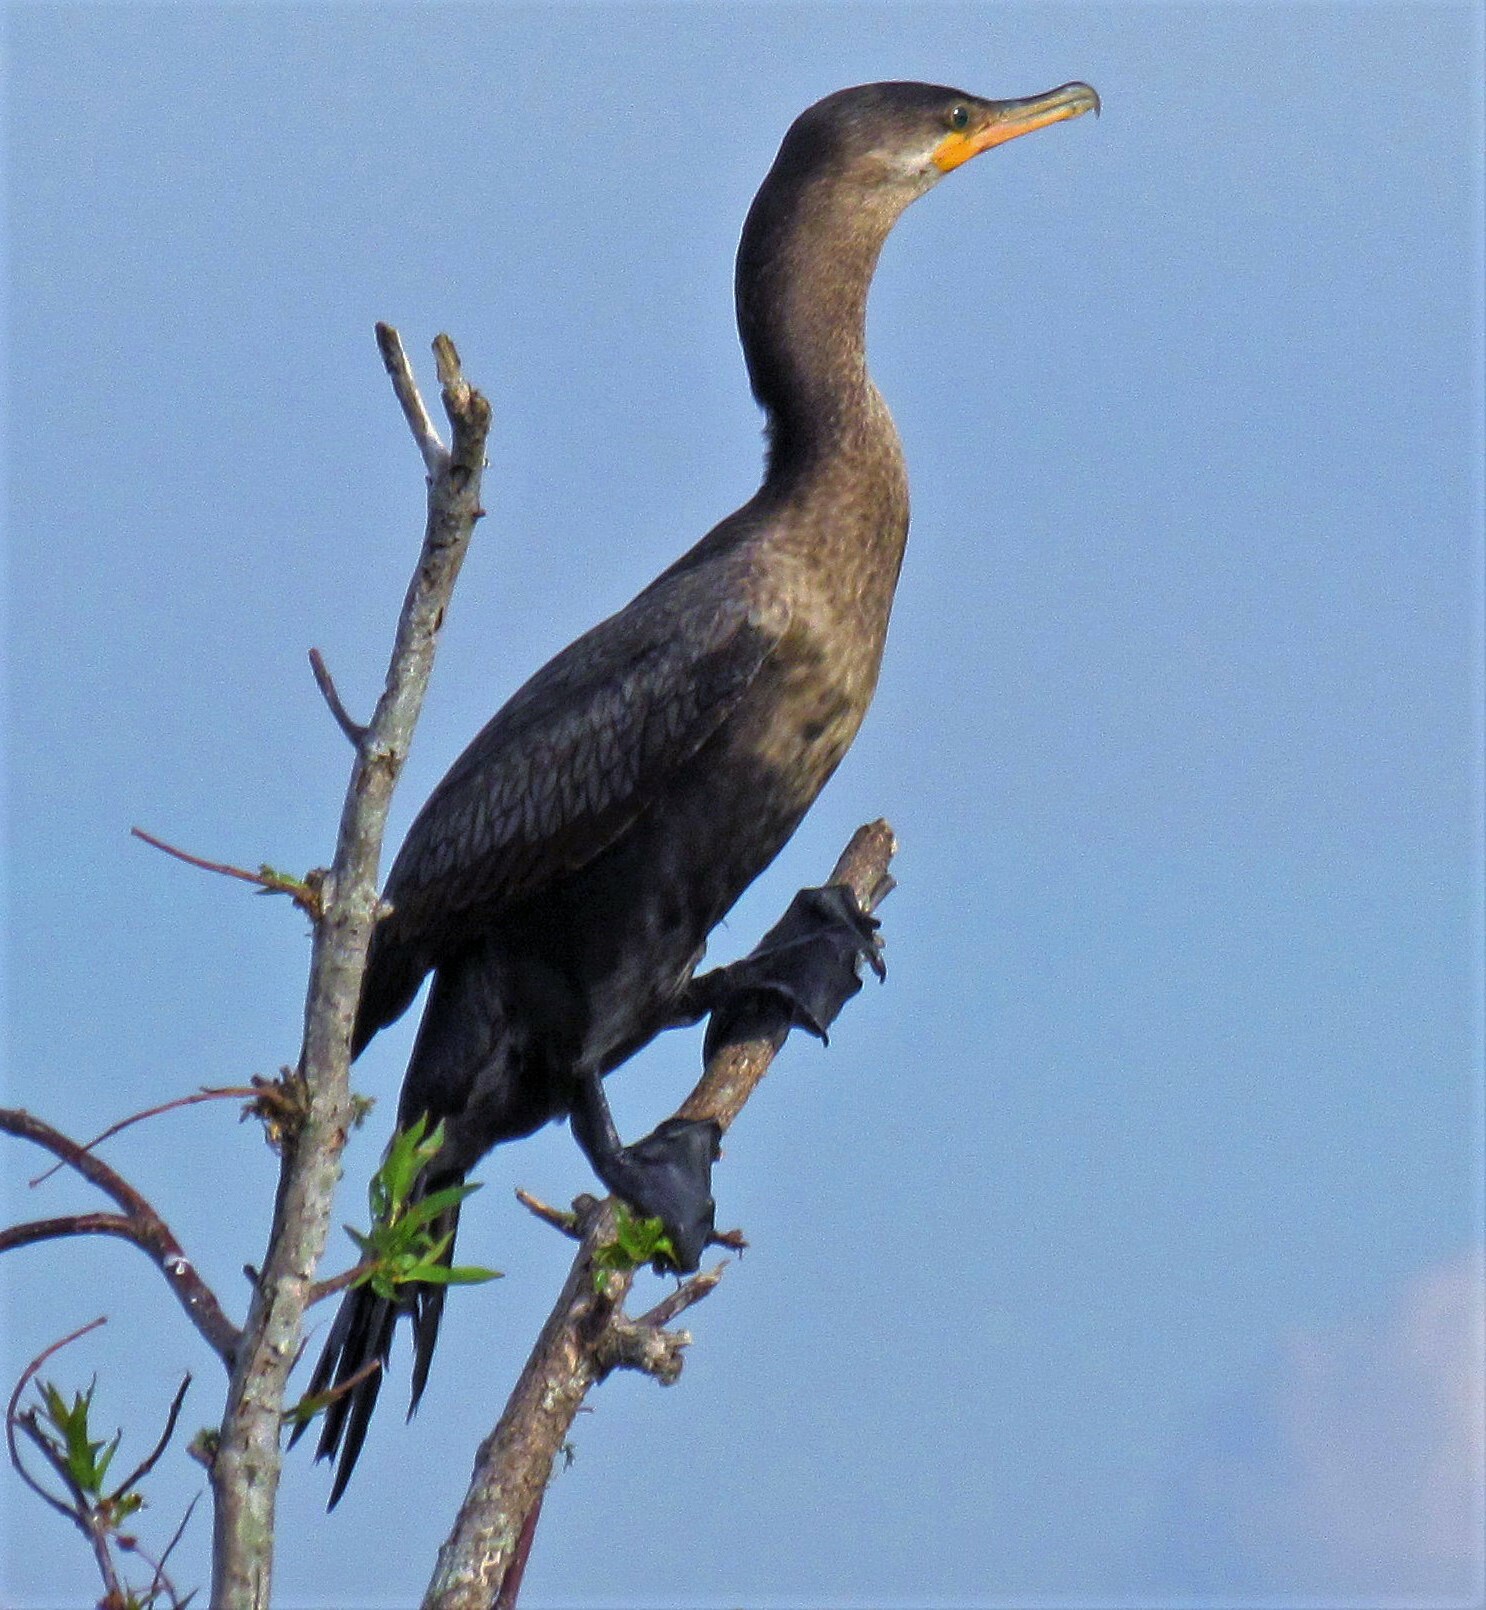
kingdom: Animalia
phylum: Chordata
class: Aves
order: Suliformes
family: Phalacrocoracidae
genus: Phalacrocorax
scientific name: Phalacrocorax brasilianus
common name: Neotropic cormorant
